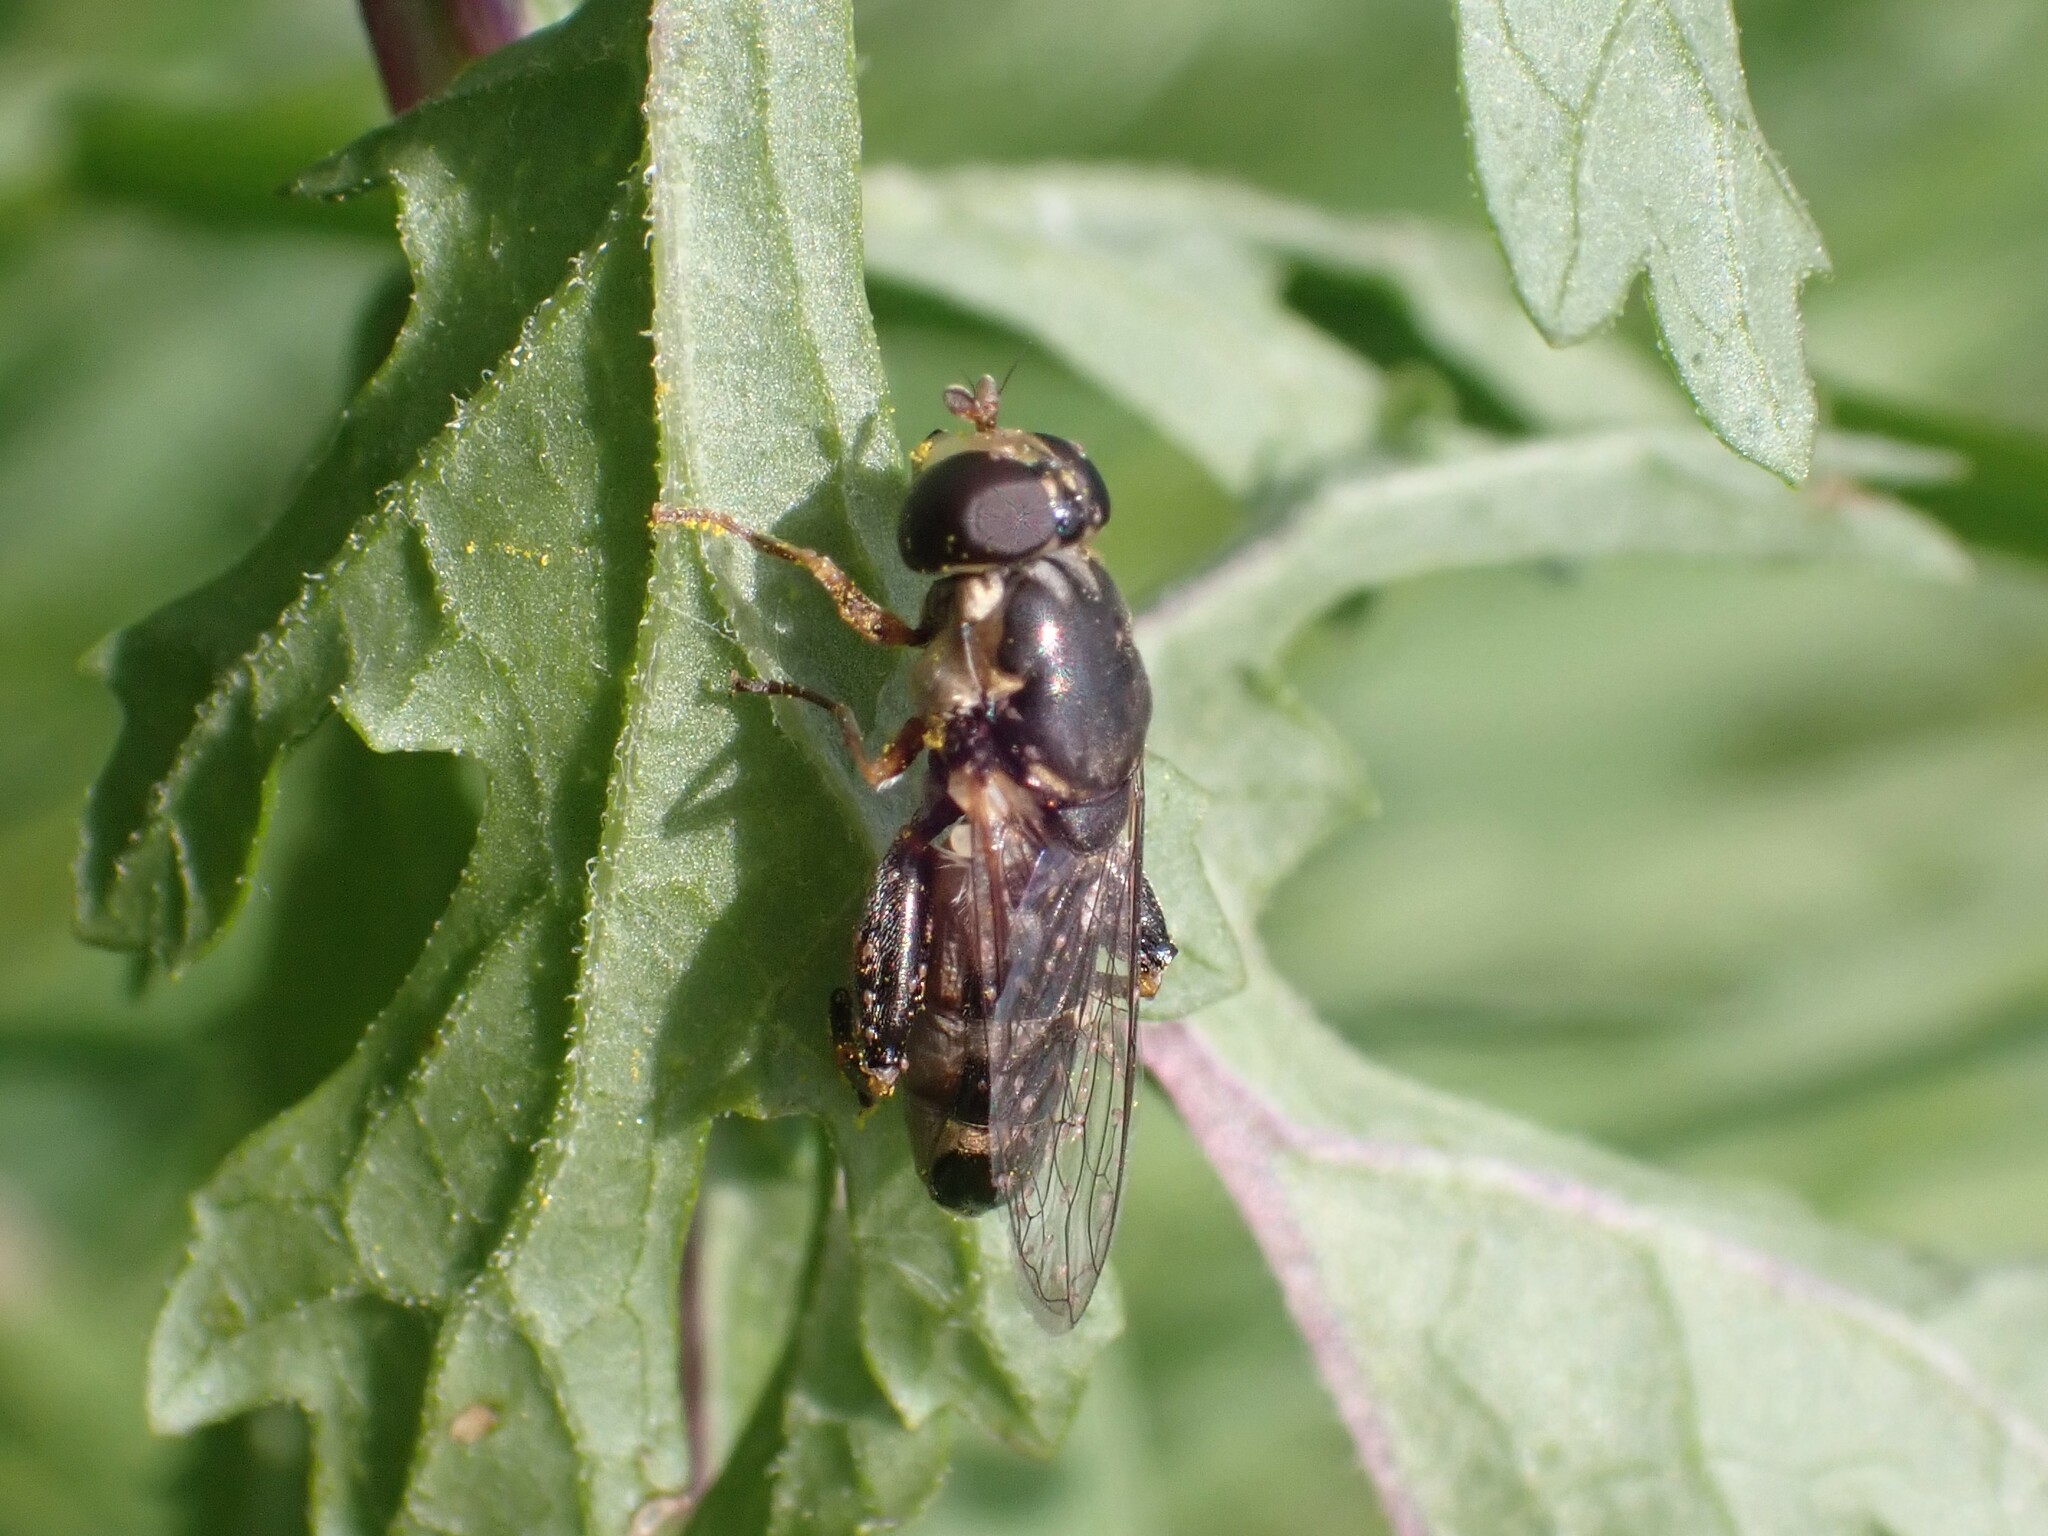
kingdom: Animalia
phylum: Arthropoda
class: Insecta
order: Diptera
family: Syrphidae
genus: Syritta
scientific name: Syritta pipiens
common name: Hover fly
